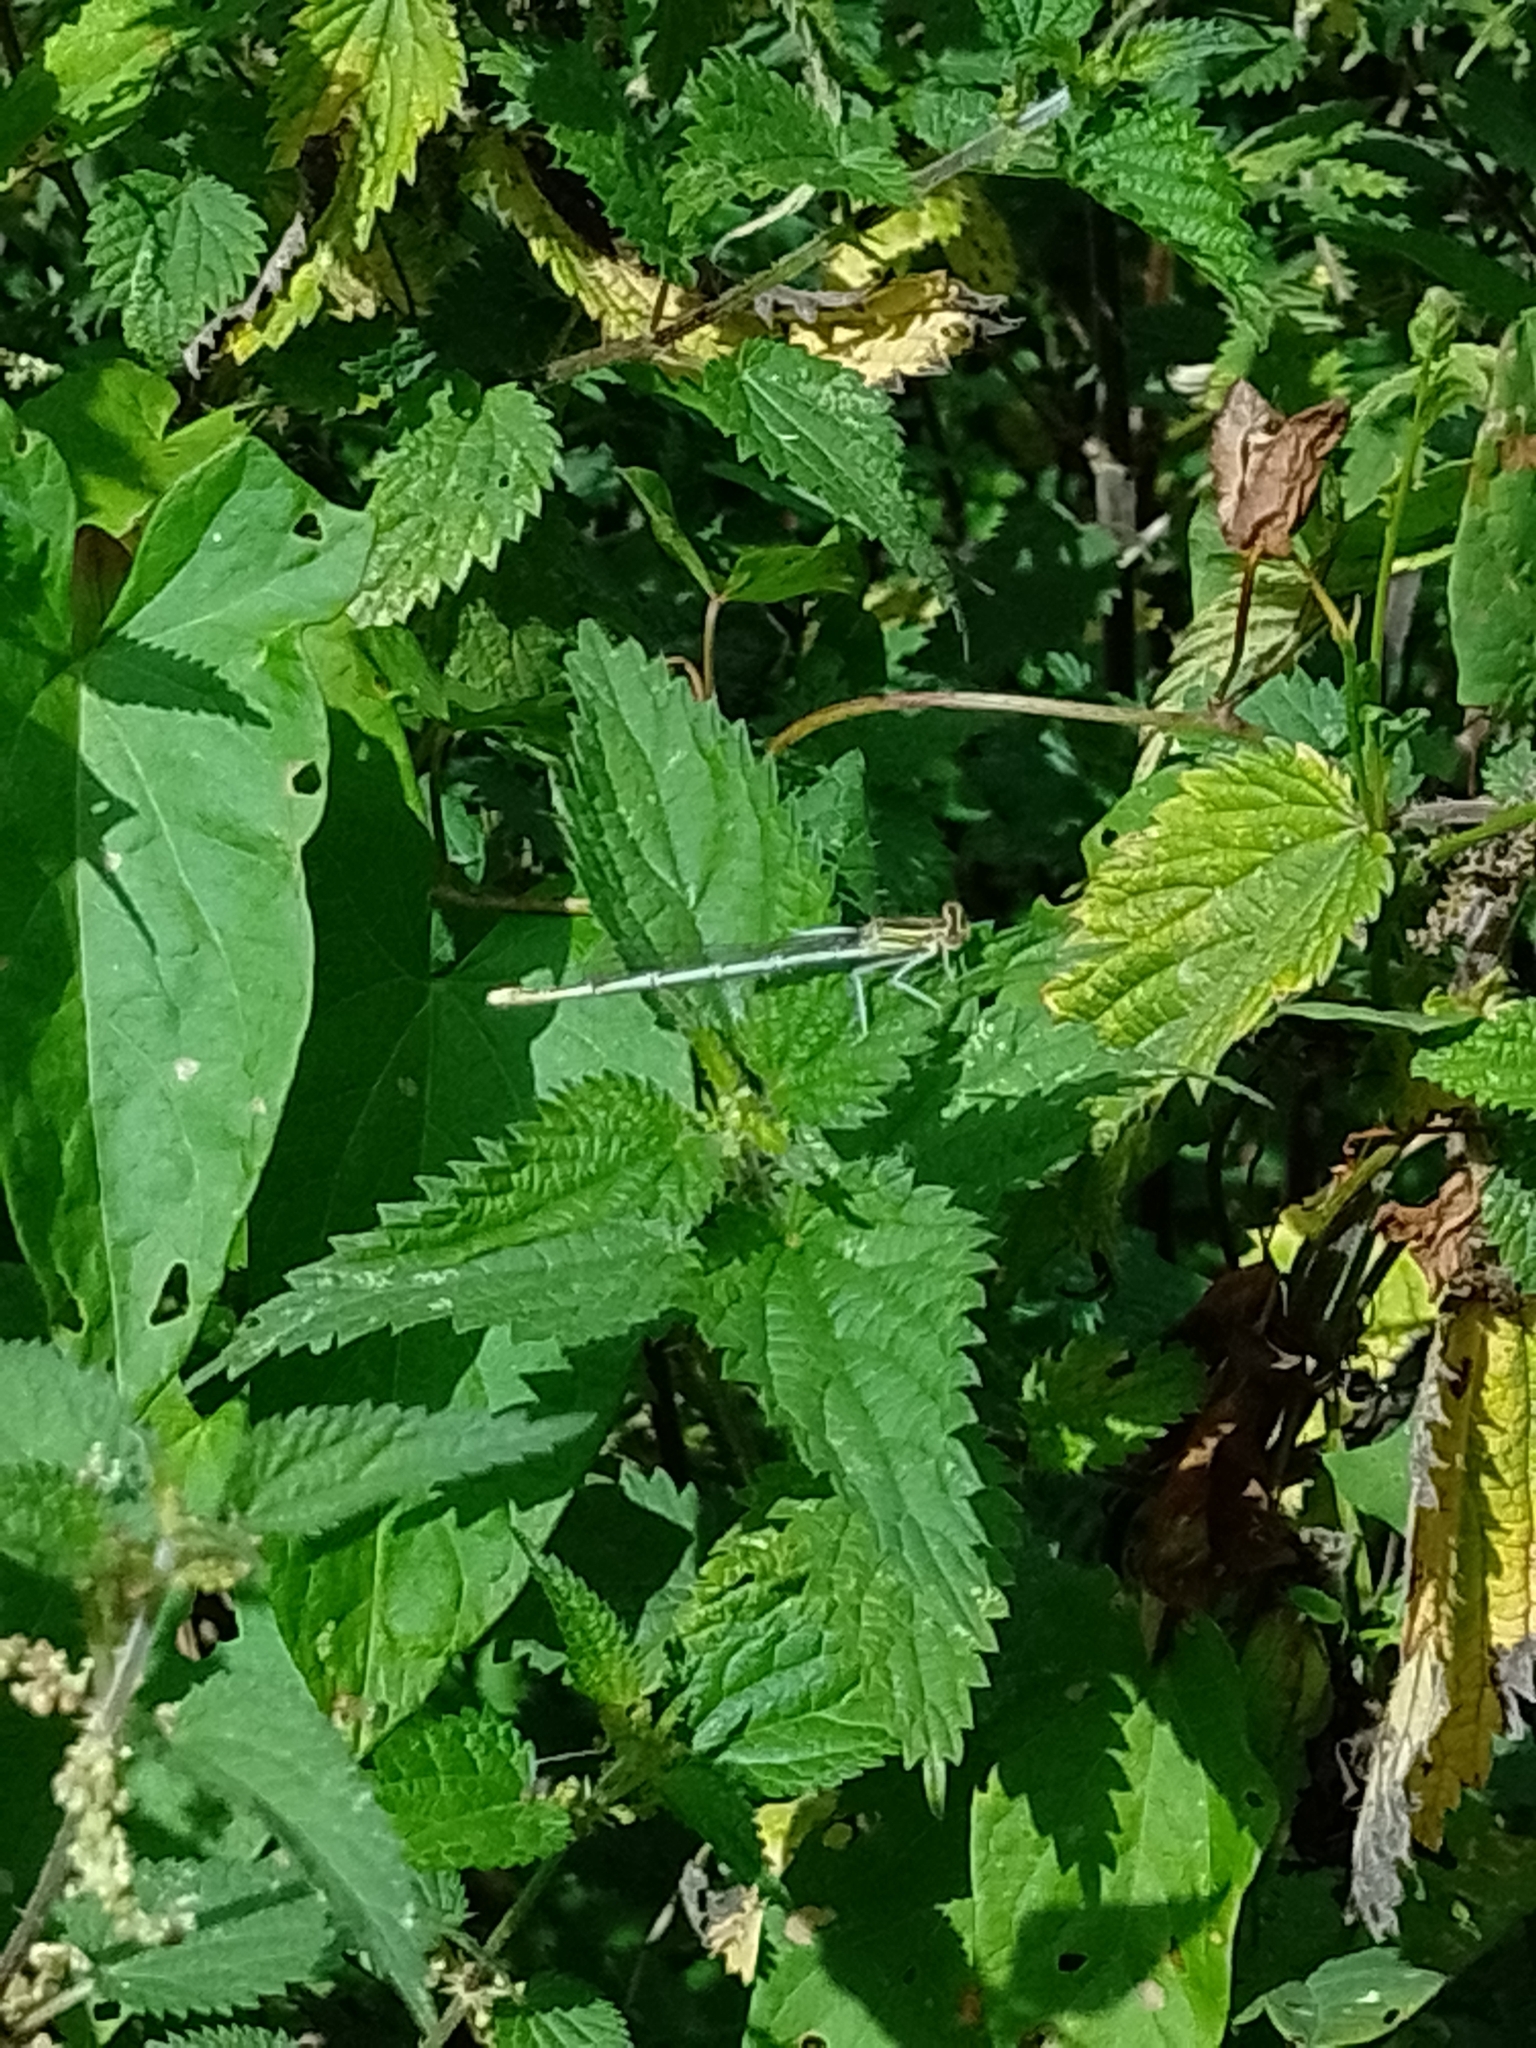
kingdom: Animalia
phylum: Arthropoda
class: Insecta
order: Odonata
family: Platycnemididae
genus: Platycnemis
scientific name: Platycnemis pennipes
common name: White-legged damselfly
